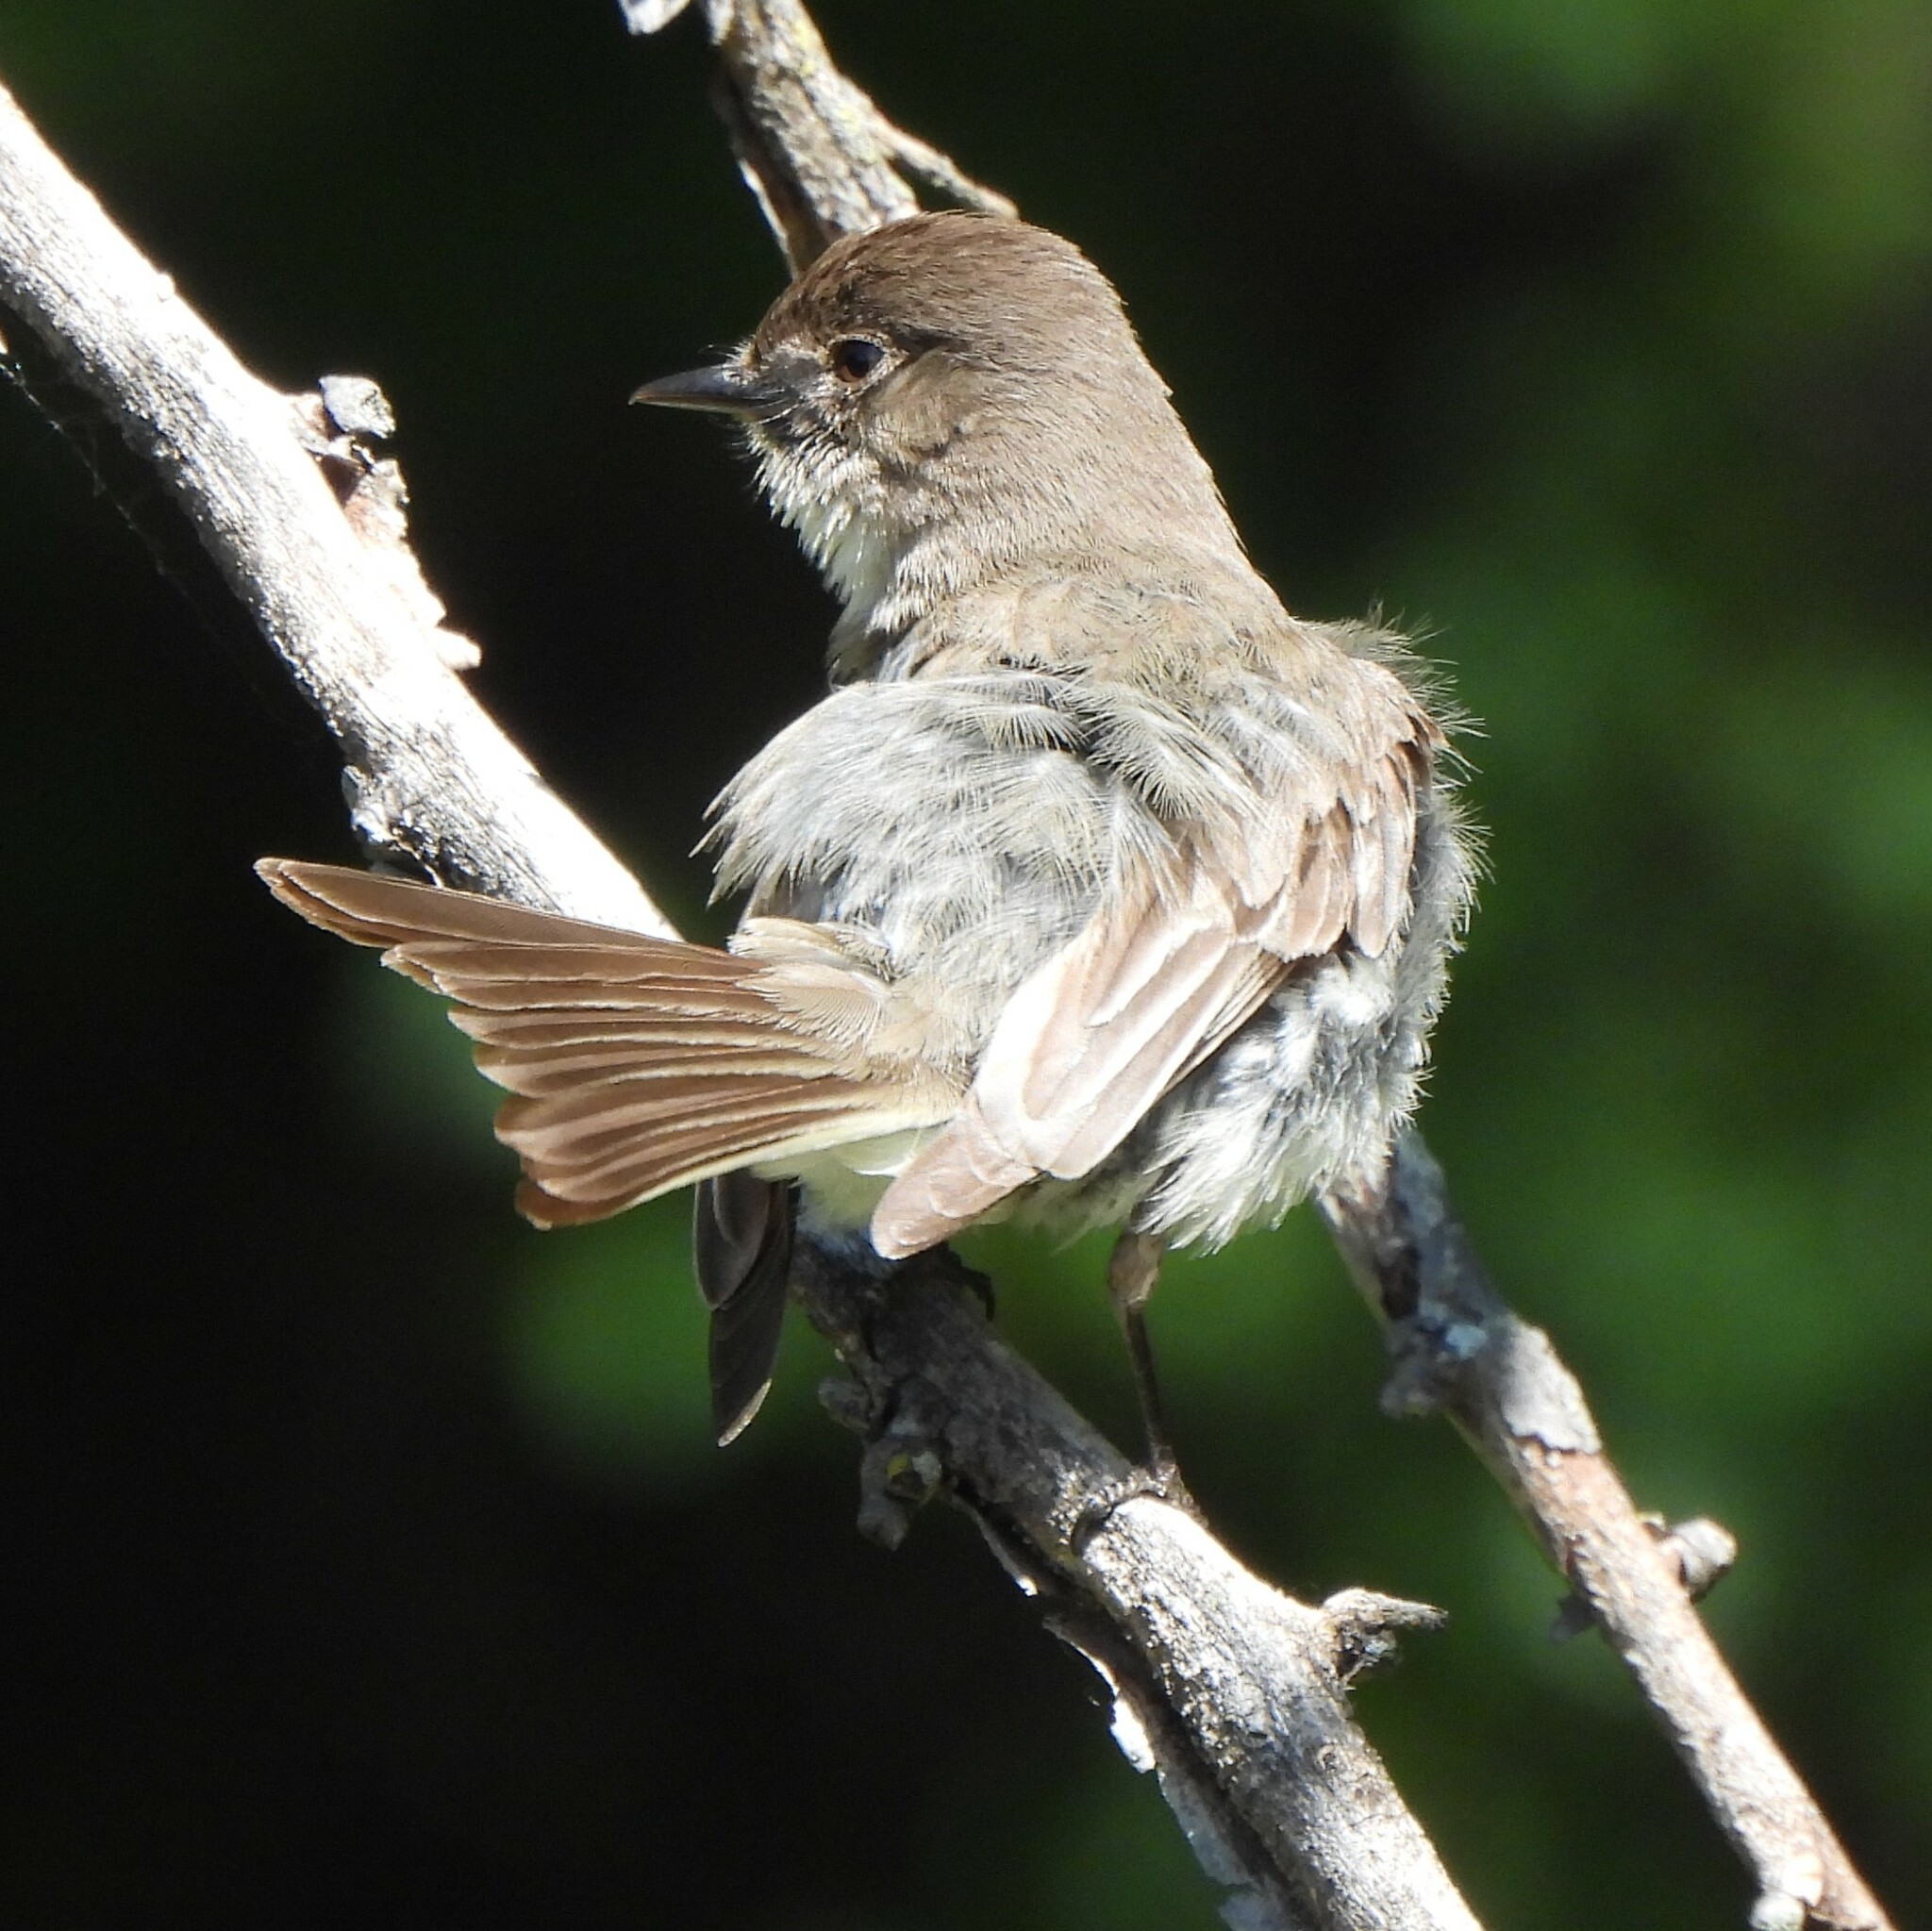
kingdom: Animalia
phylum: Chordata
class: Aves
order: Passeriformes
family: Tyrannidae
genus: Sayornis
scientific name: Sayornis phoebe
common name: Eastern phoebe
